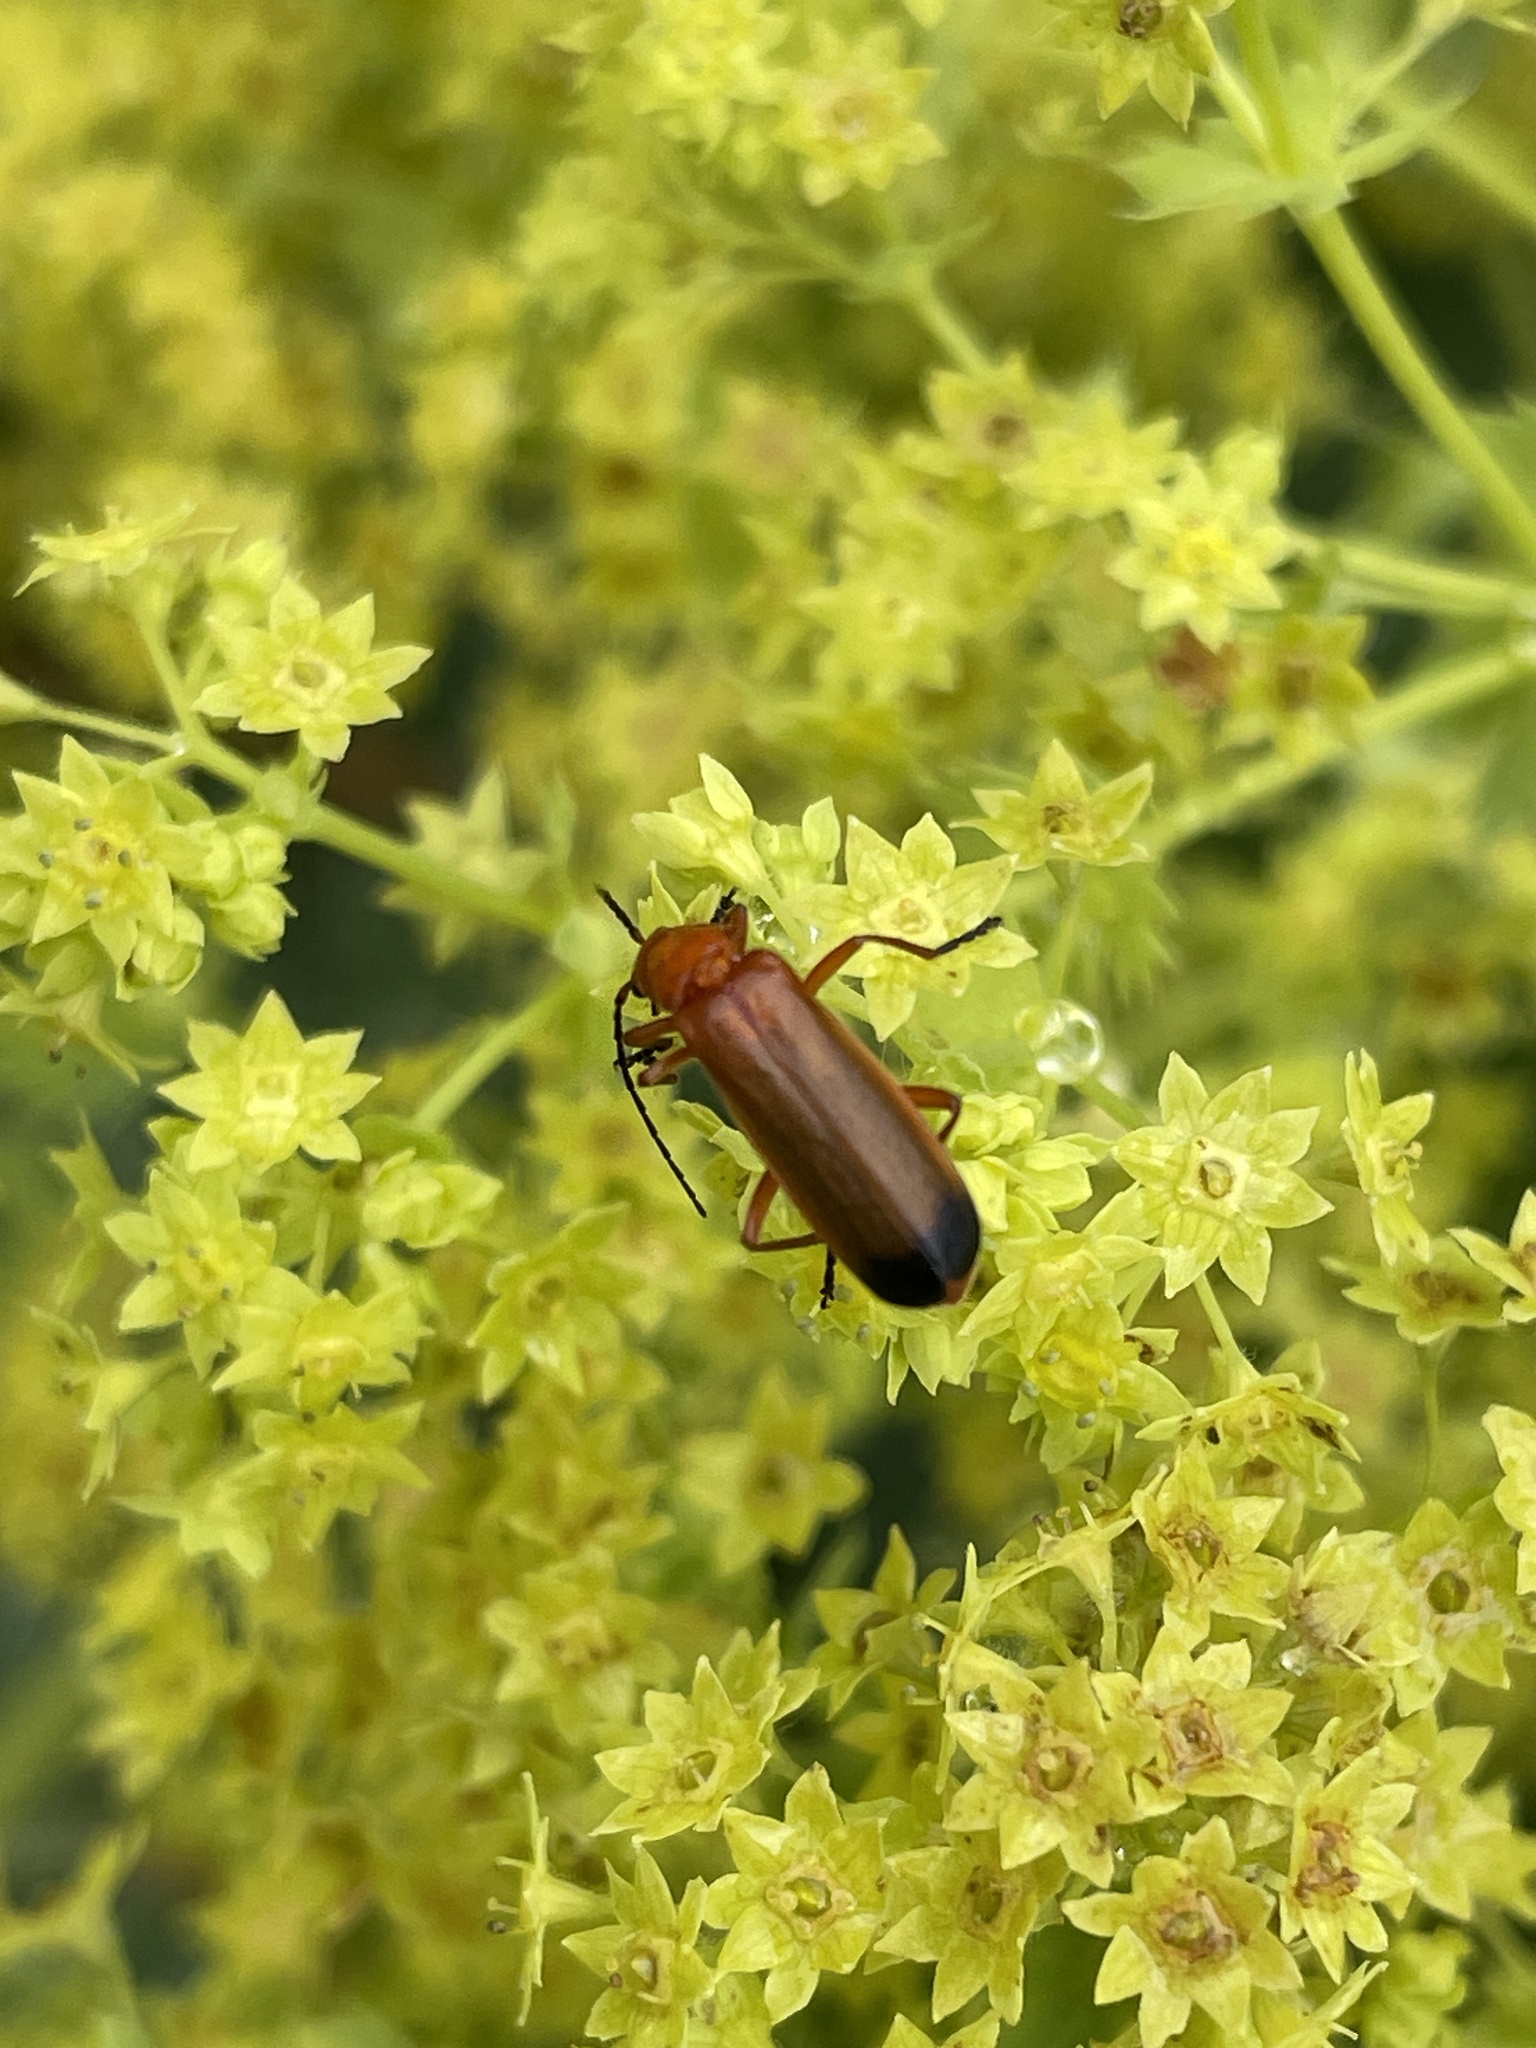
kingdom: Animalia
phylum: Arthropoda
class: Insecta
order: Coleoptera
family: Cantharidae
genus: Rhagonycha
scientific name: Rhagonycha fulva
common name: Common red soldier beetle
